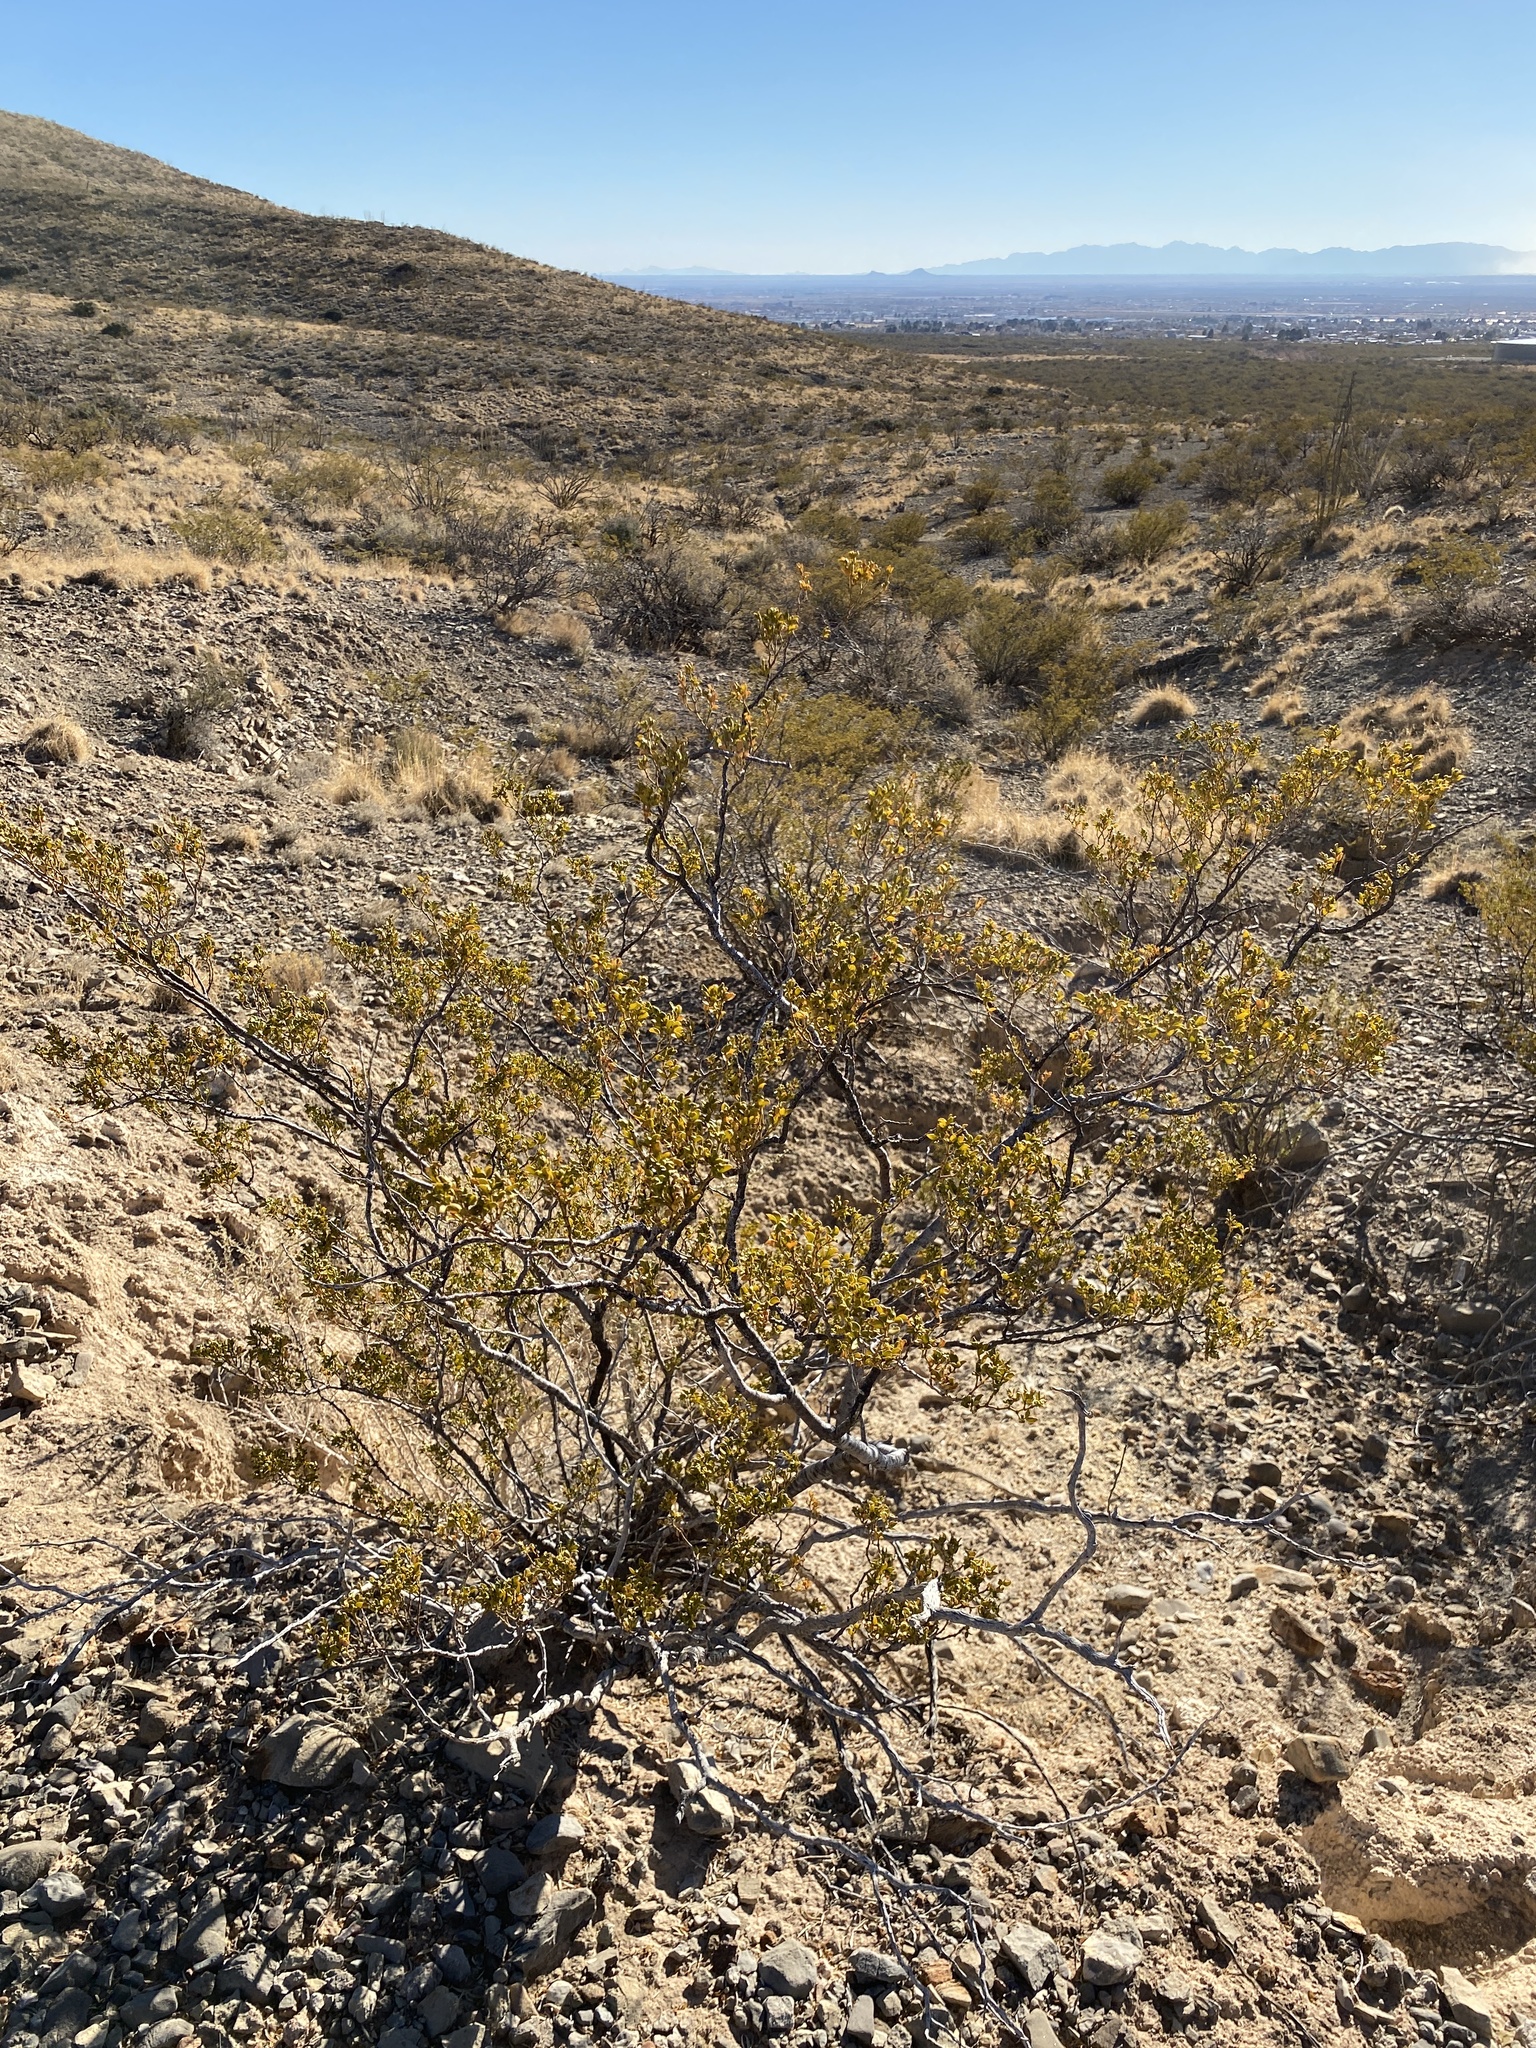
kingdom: Plantae
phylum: Tracheophyta
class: Magnoliopsida
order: Zygophyllales
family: Zygophyllaceae
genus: Larrea
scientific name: Larrea tridentata
